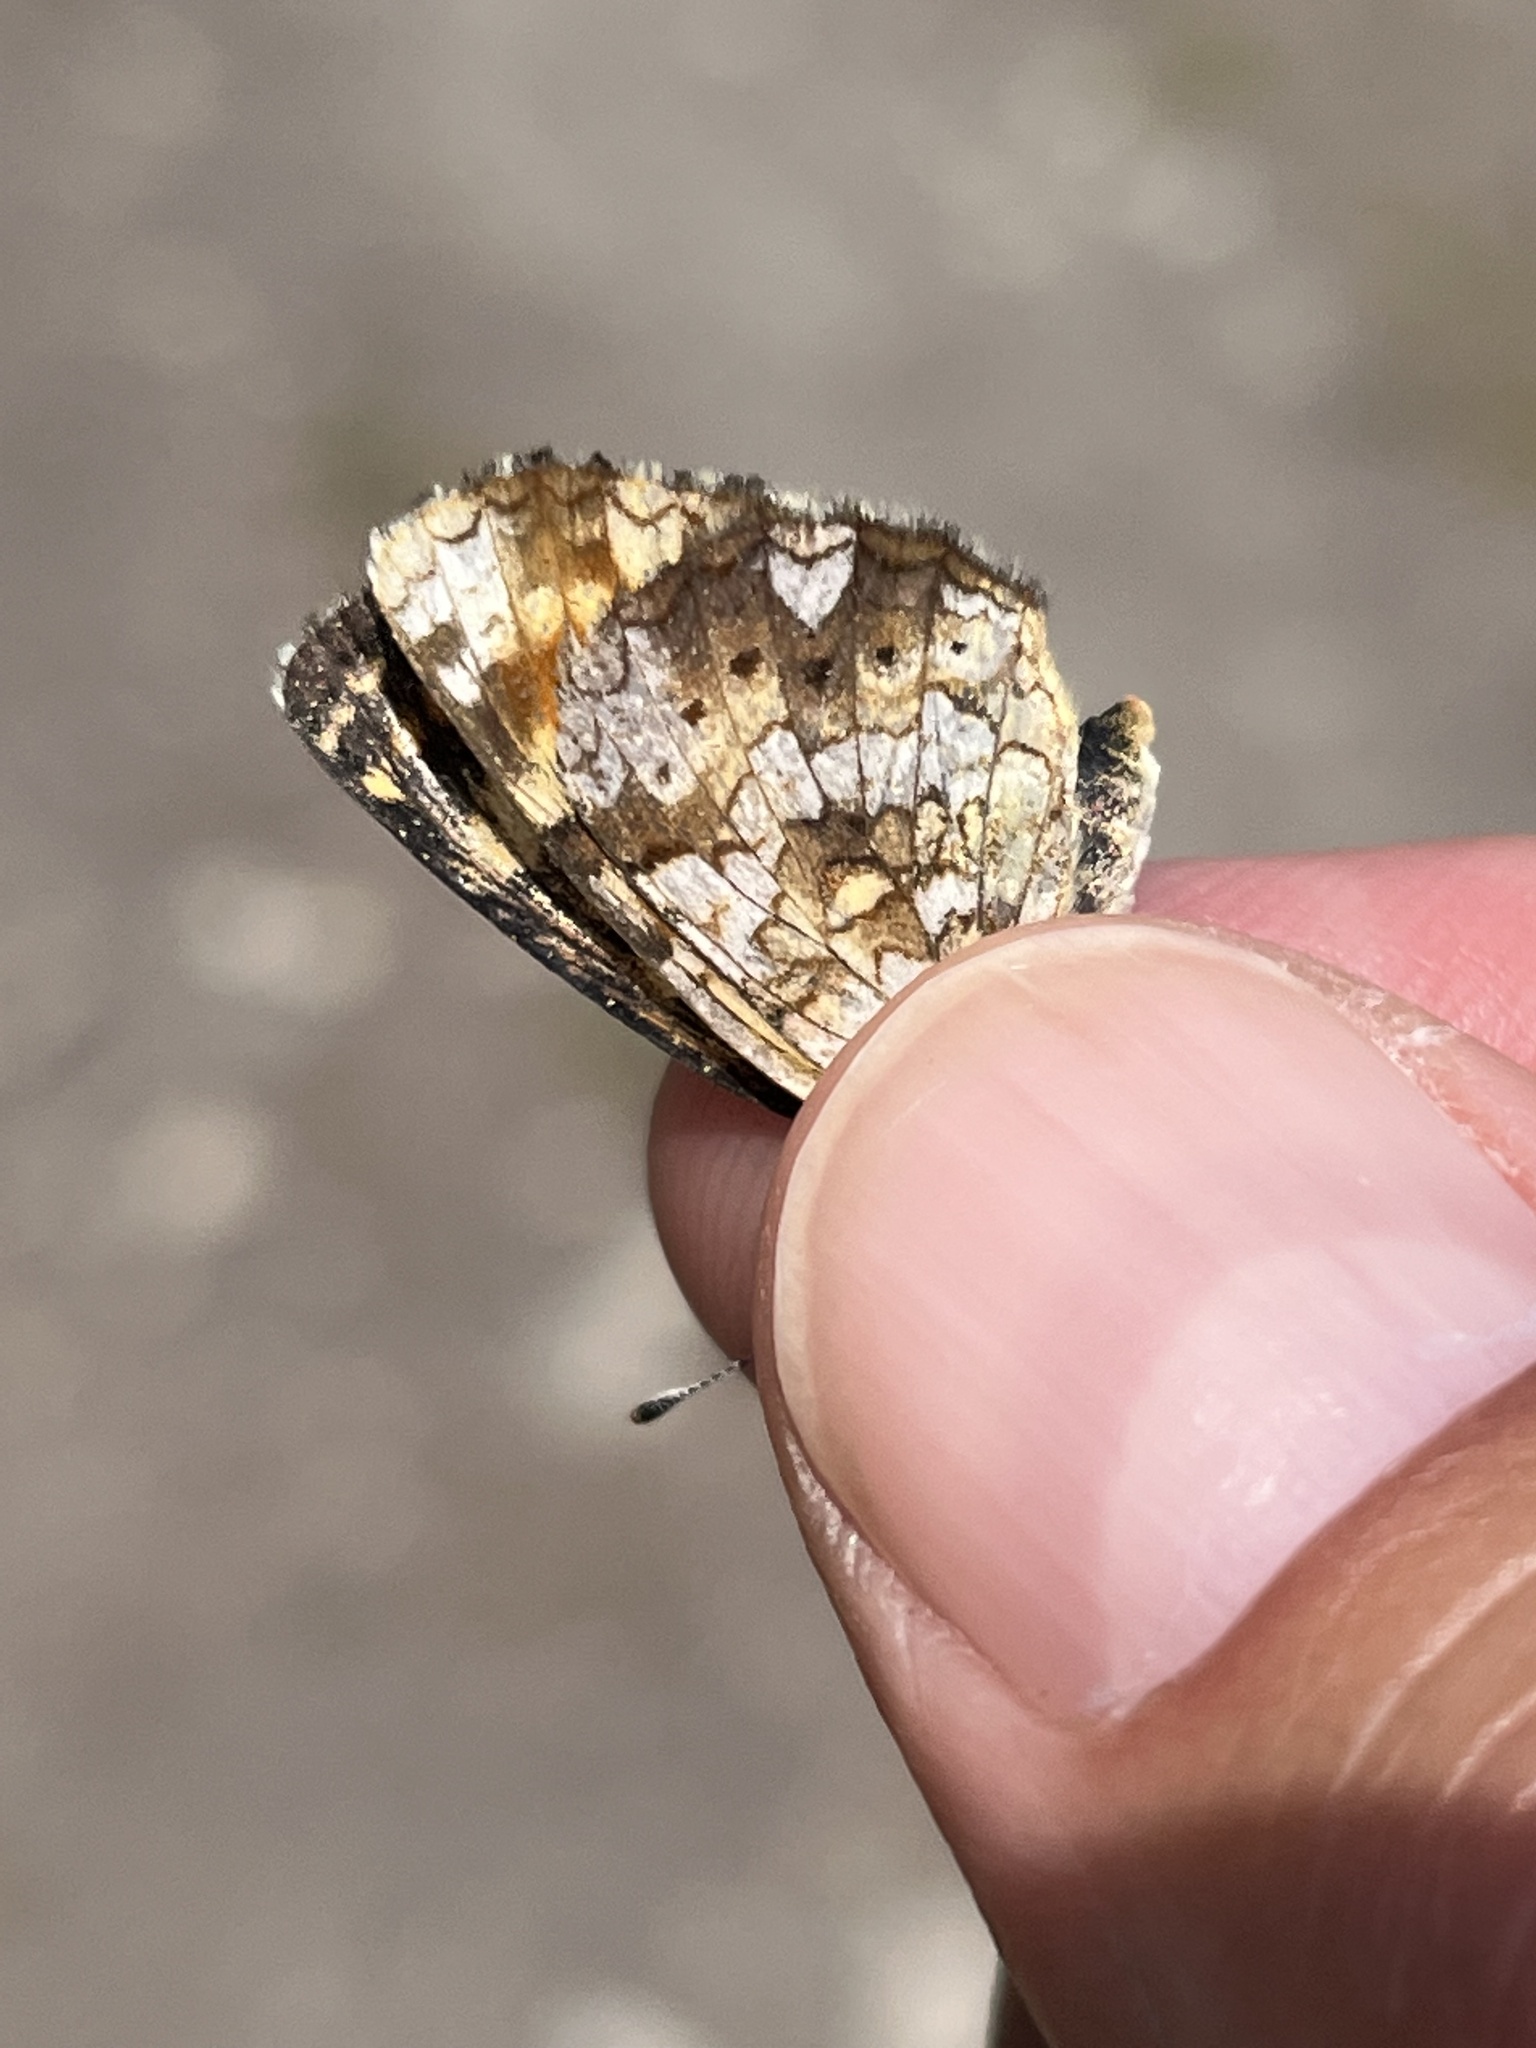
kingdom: Animalia
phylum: Arthropoda
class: Insecta
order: Lepidoptera
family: Nymphalidae
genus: Phyciodes
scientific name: Phyciodes tharos
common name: Pearl crescent
